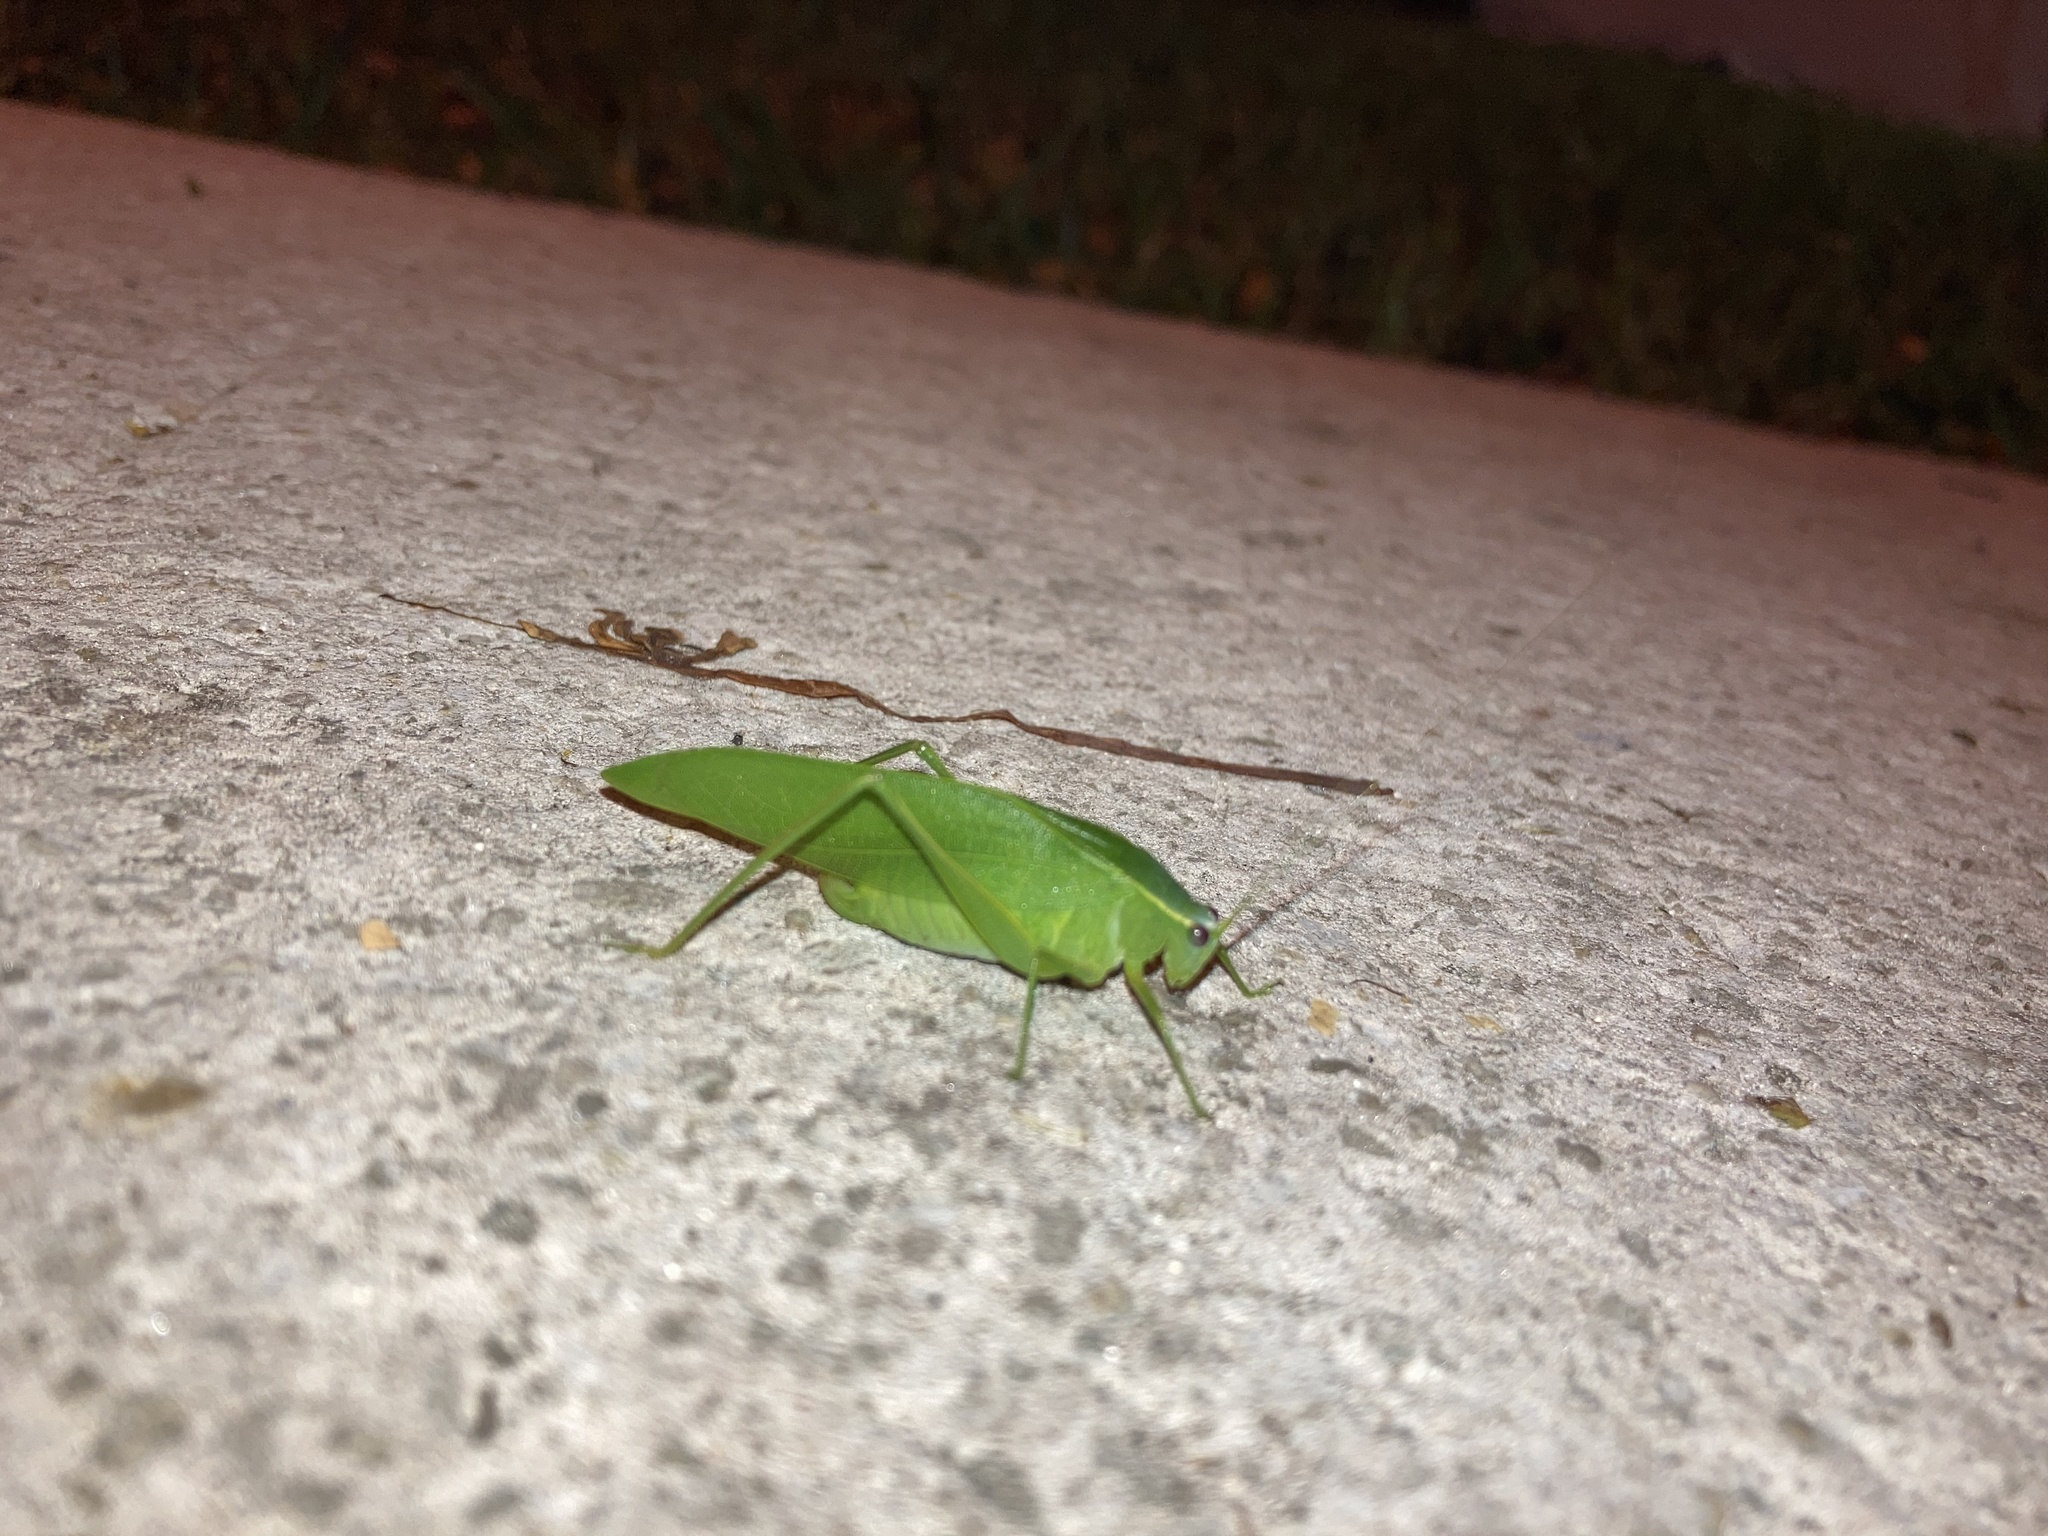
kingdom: Animalia
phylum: Arthropoda
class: Insecta
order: Orthoptera
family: Tettigoniidae
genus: Turpilia
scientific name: Turpilia rostrata
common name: Narrow-beaked katydid
